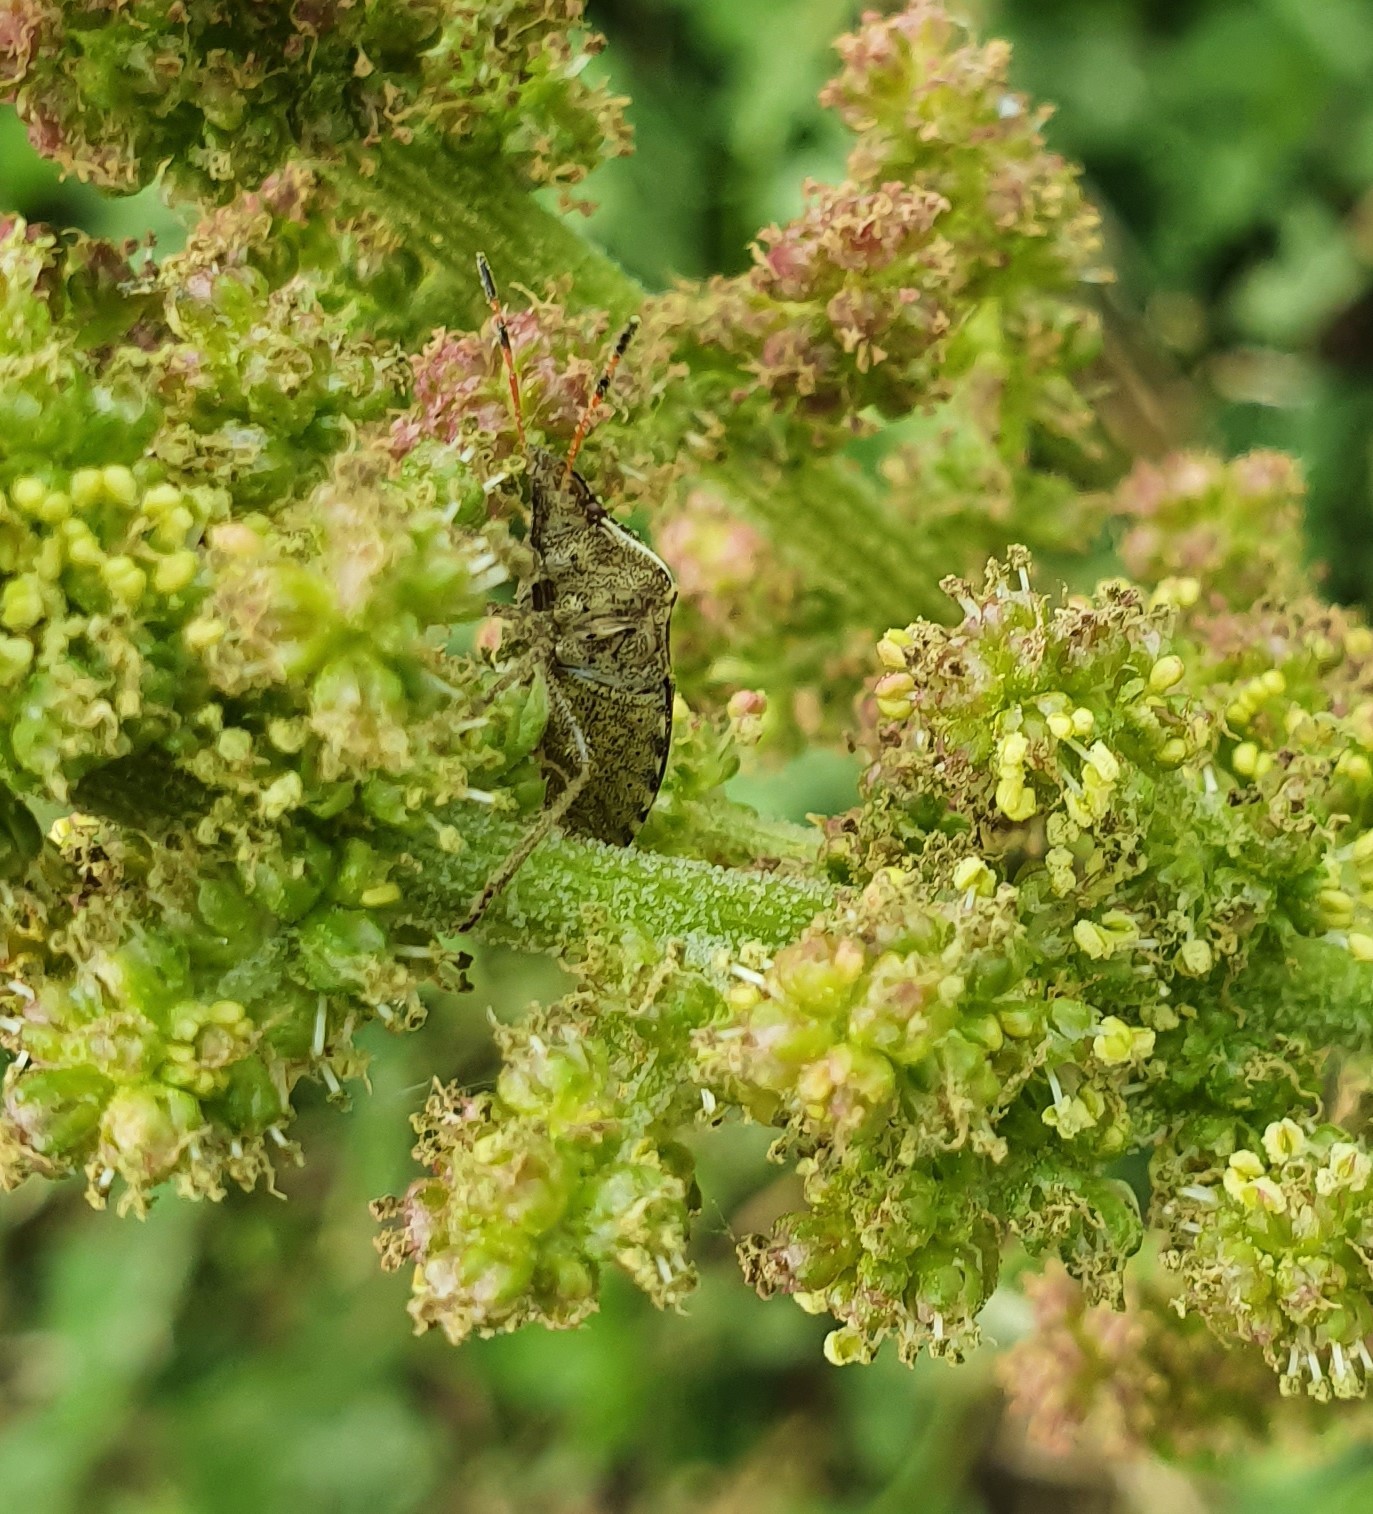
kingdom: Animalia
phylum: Arthropoda
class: Insecta
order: Hemiptera
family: Pentatomidae
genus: Holcostethus
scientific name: Holcostethus strictus
